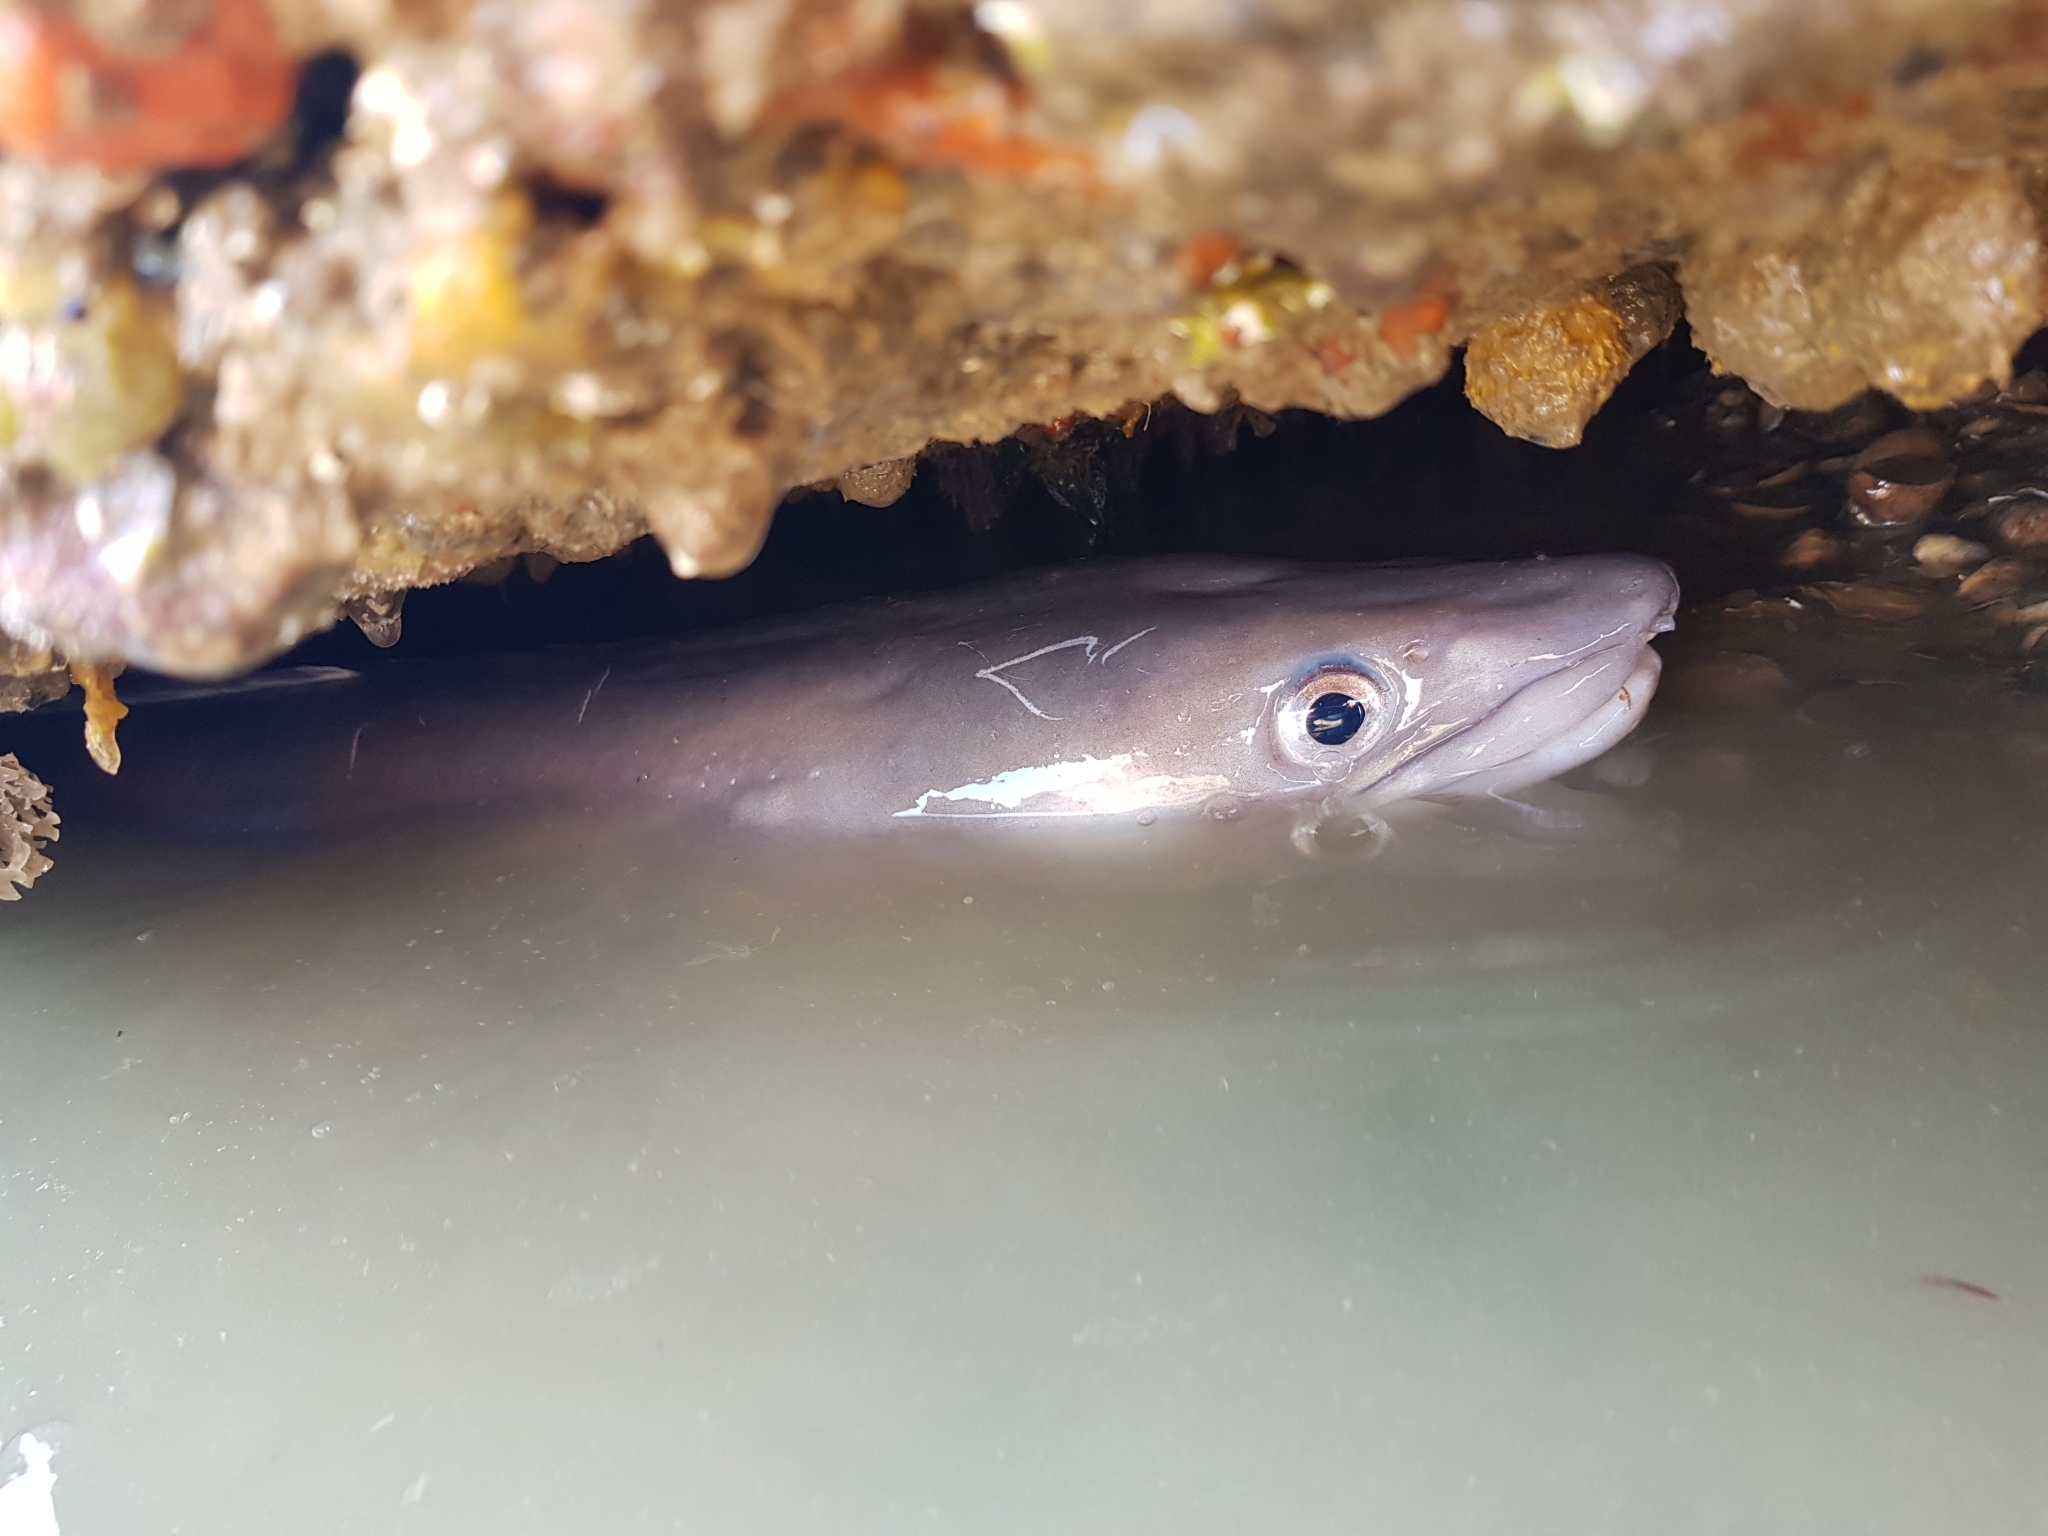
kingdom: Animalia
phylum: Chordata
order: Anguilliformes
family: Congridae
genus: Conger
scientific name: Conger conger
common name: Conger eel
